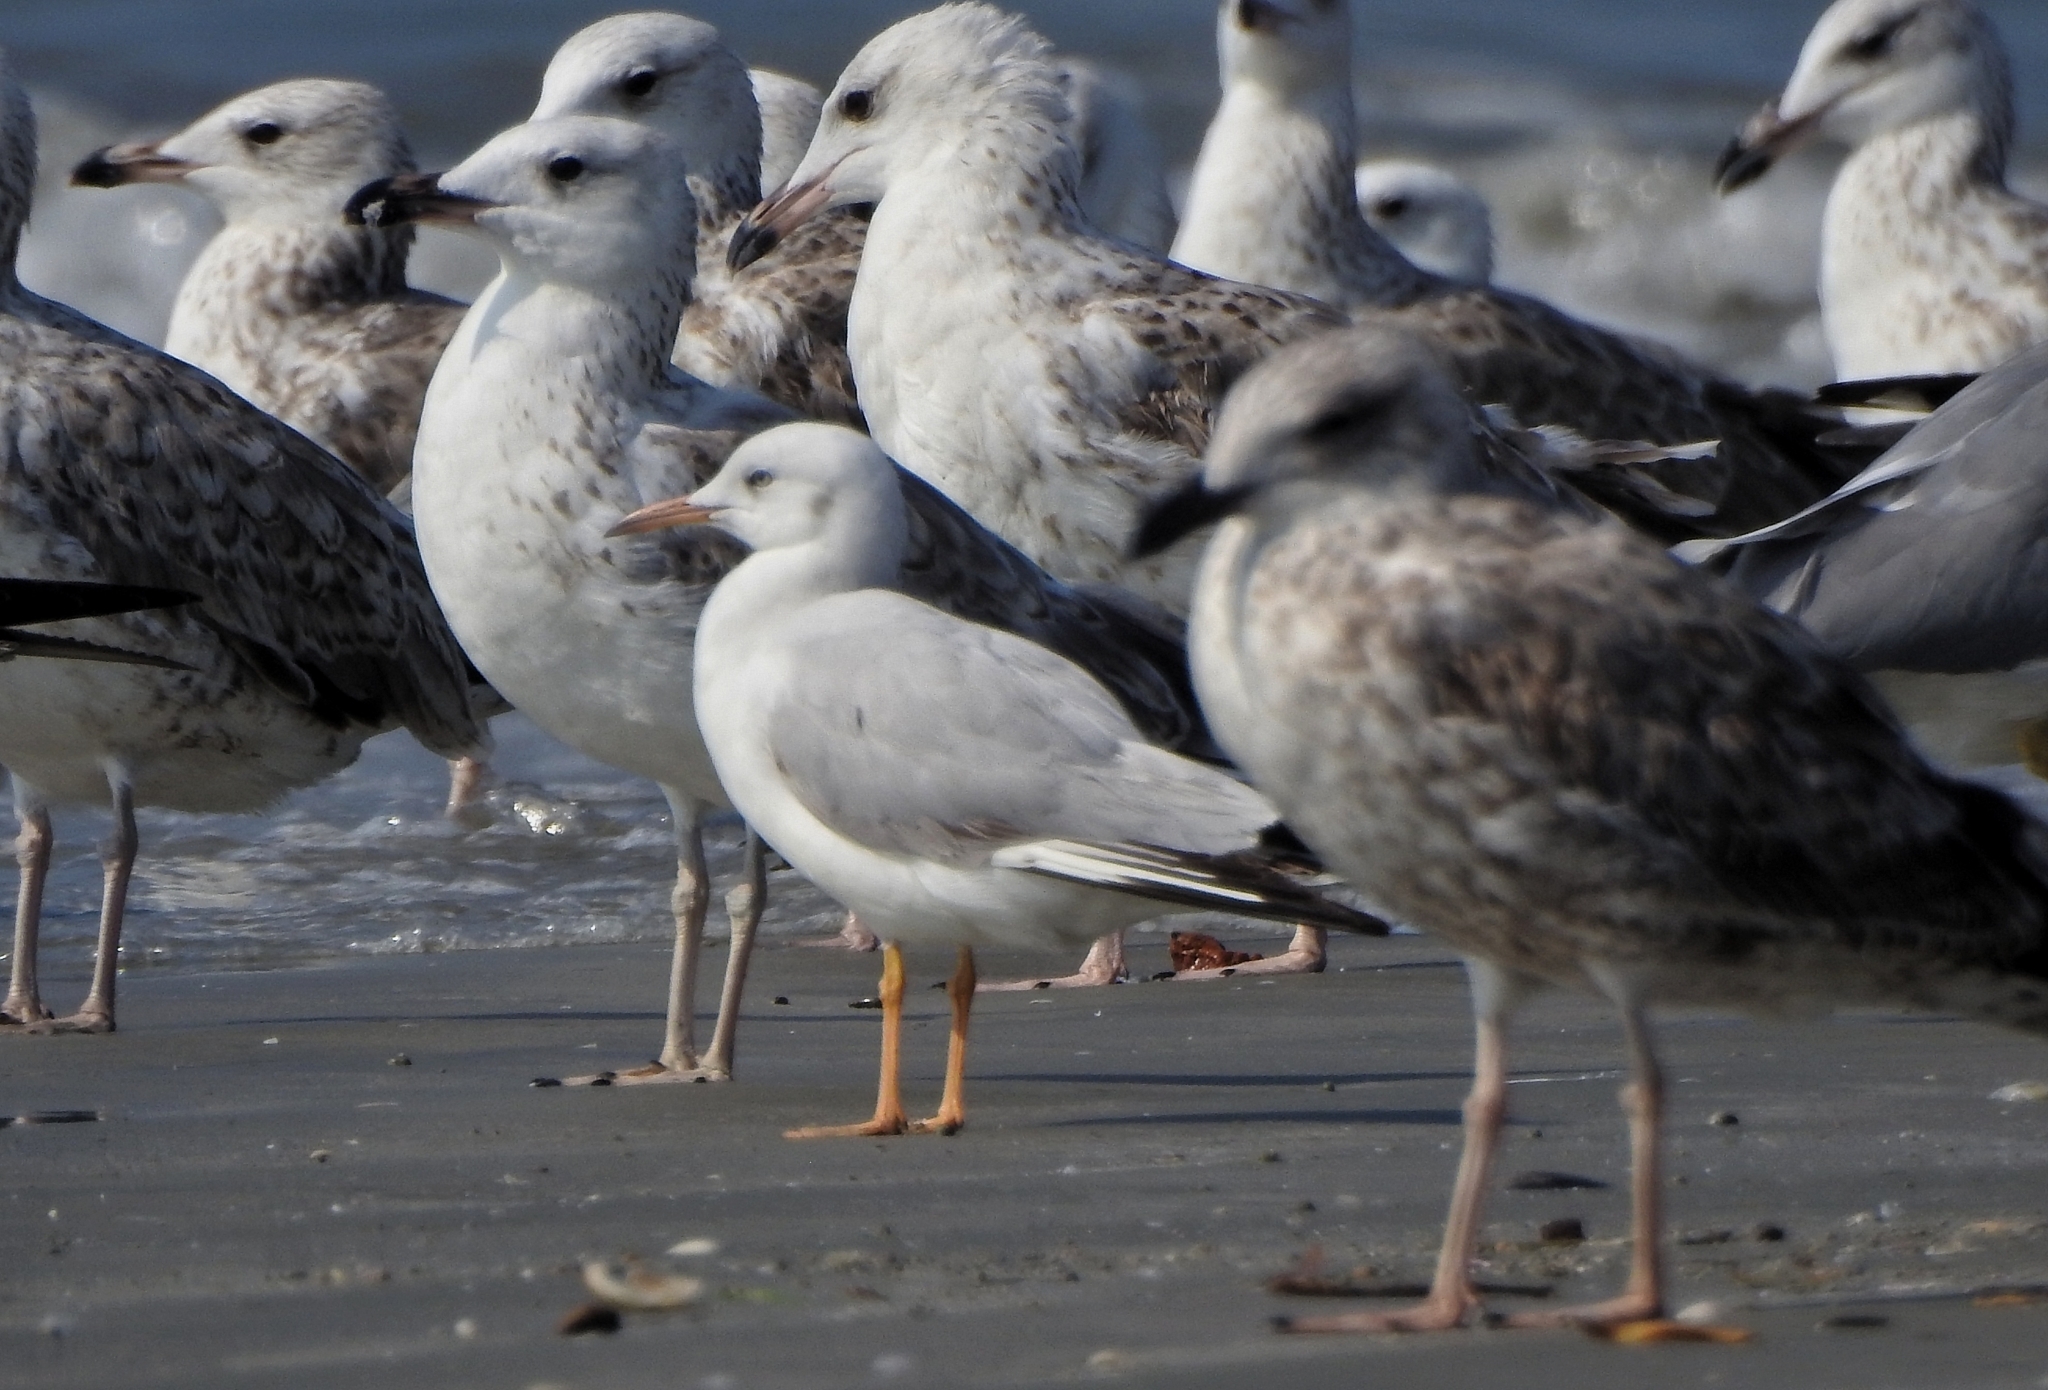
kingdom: Animalia
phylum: Chordata
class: Aves
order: Charadriiformes
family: Laridae
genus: Chroicocephalus
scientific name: Chroicocephalus genei
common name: Slender-billed gull
